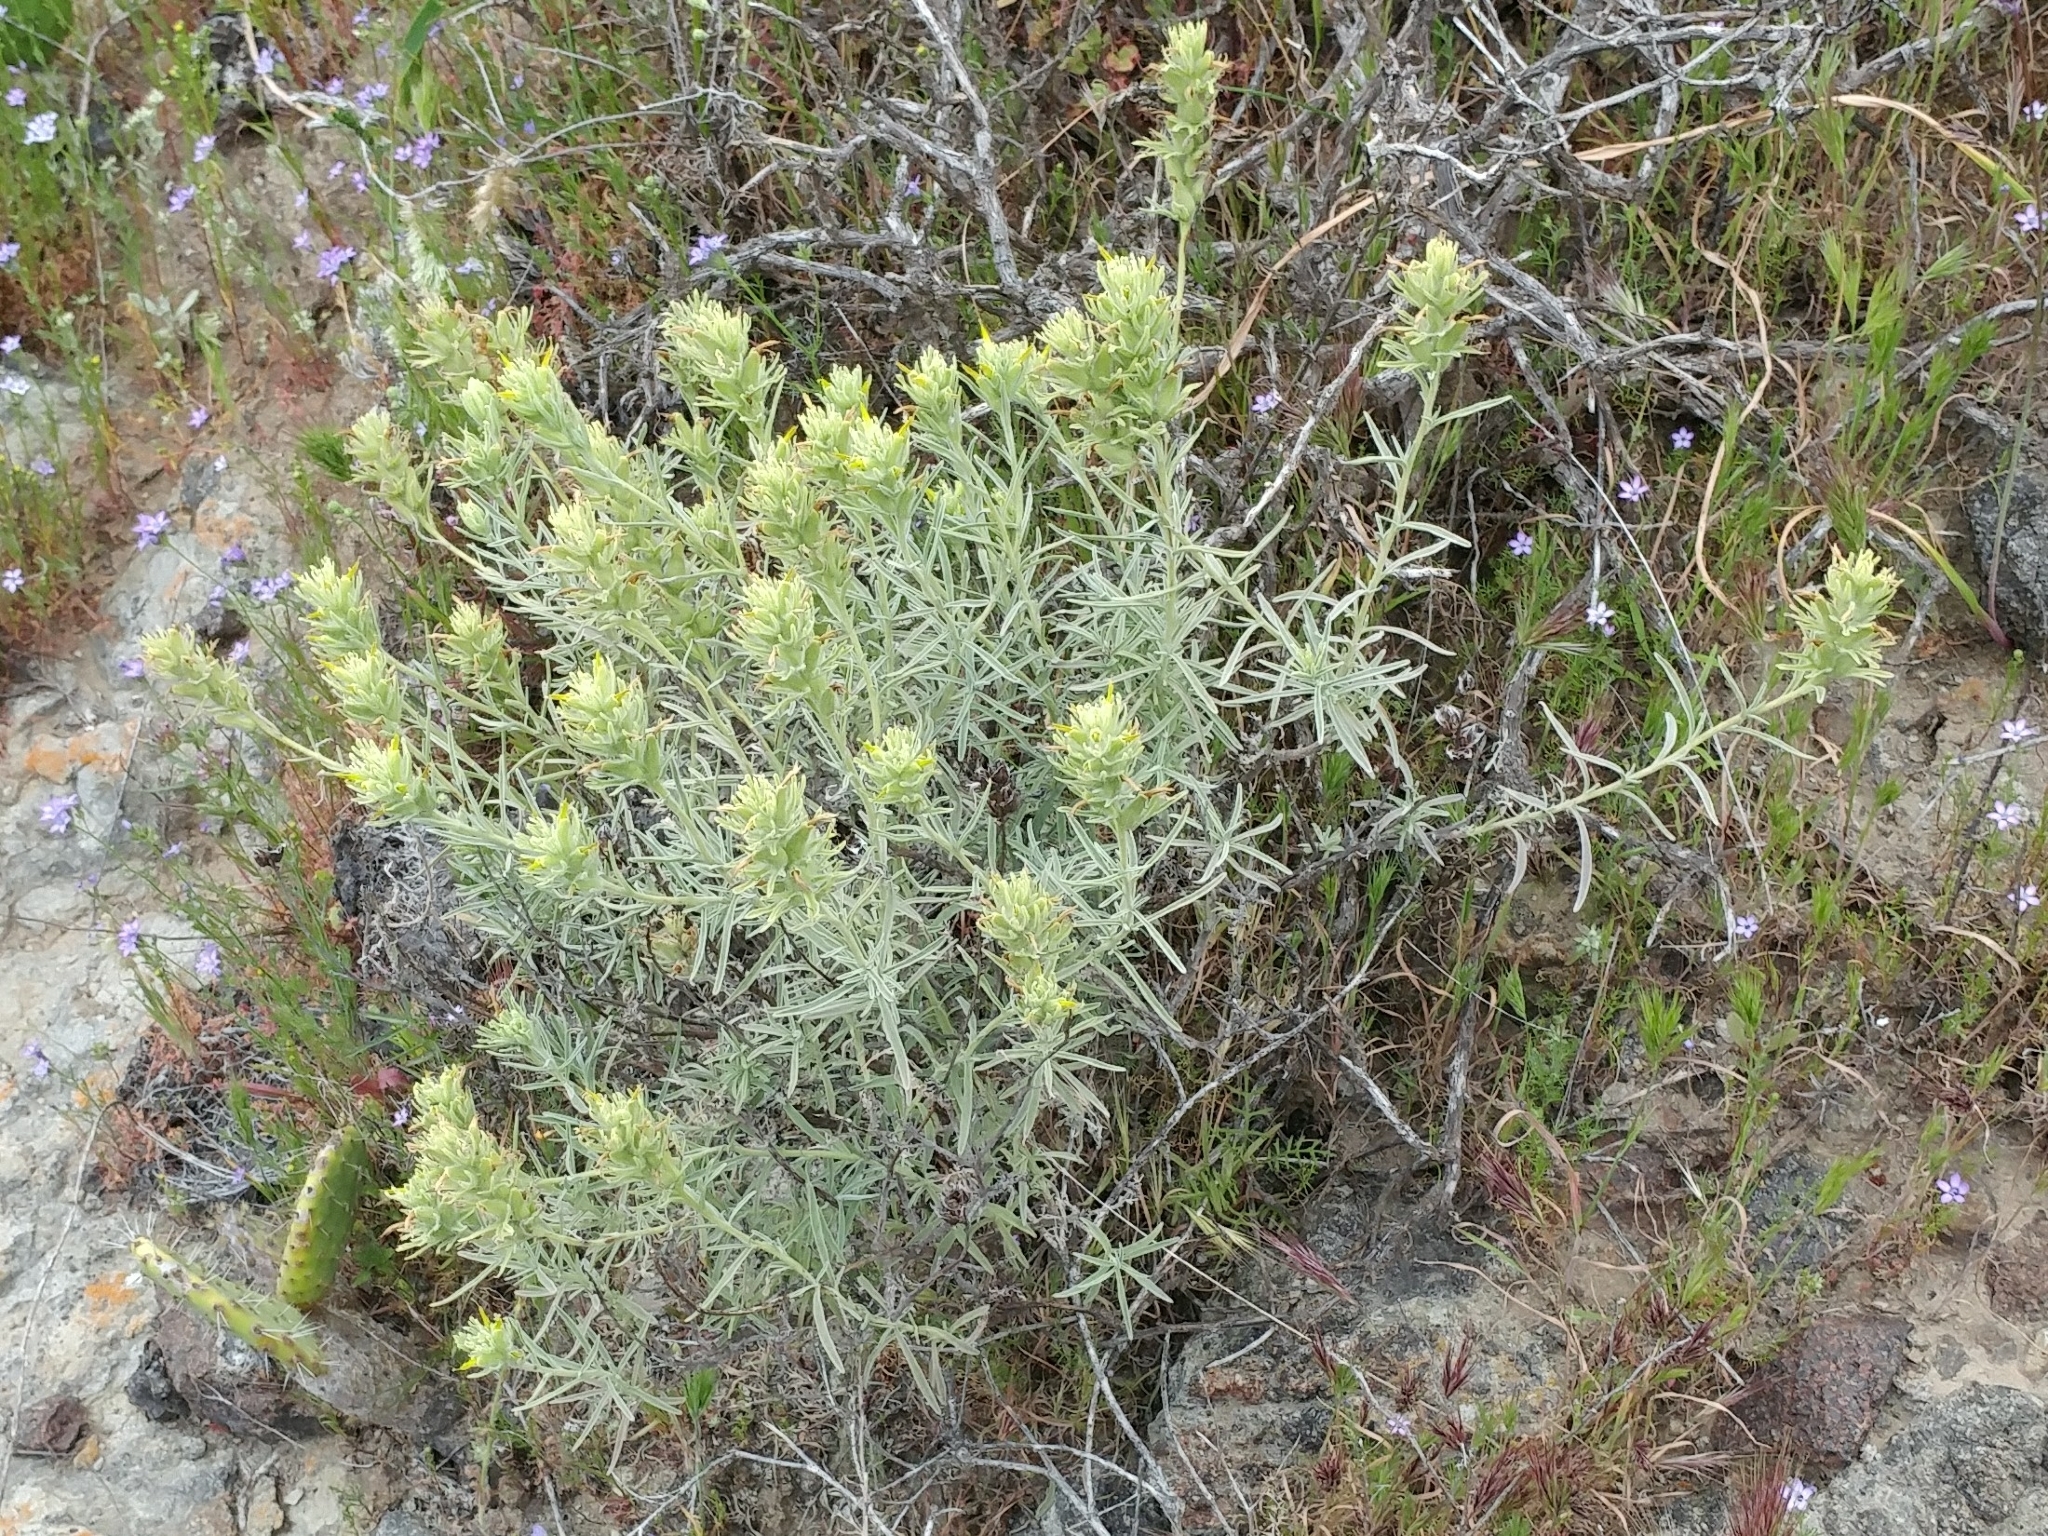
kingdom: Plantae
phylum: Tracheophyta
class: Magnoliopsida
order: Lamiales
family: Orobanchaceae
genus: Castilleja
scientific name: Castilleja grisea
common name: San clemente island indian paintbrush
